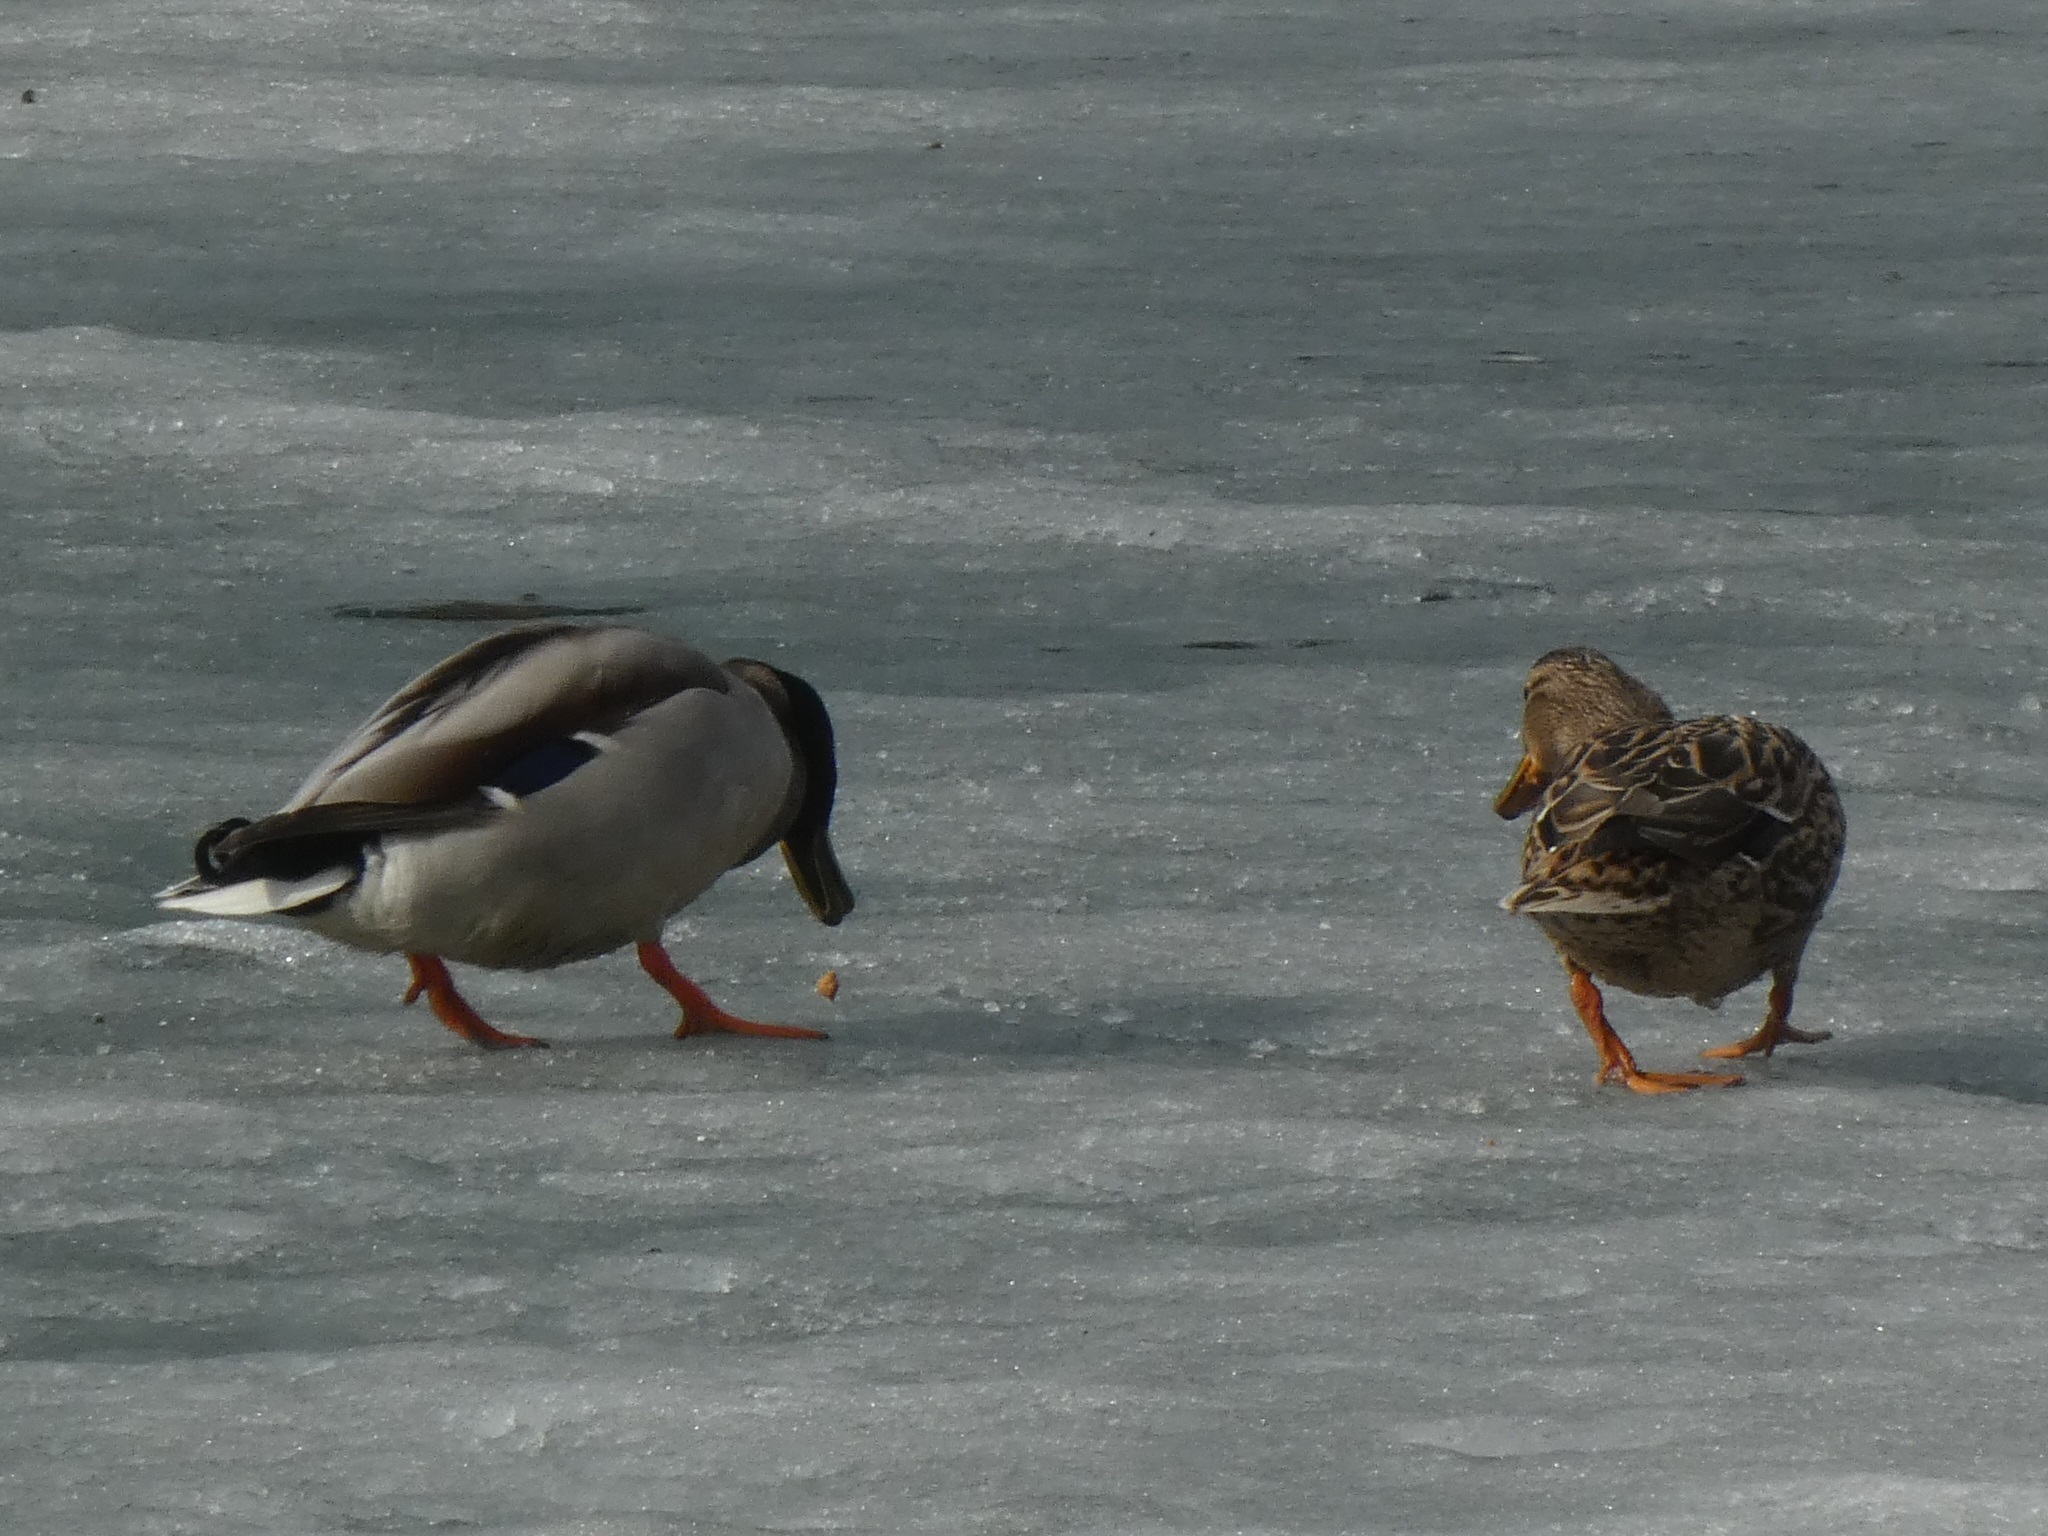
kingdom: Animalia
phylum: Chordata
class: Aves
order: Anseriformes
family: Anatidae
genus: Anas
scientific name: Anas platyrhynchos
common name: Mallard
